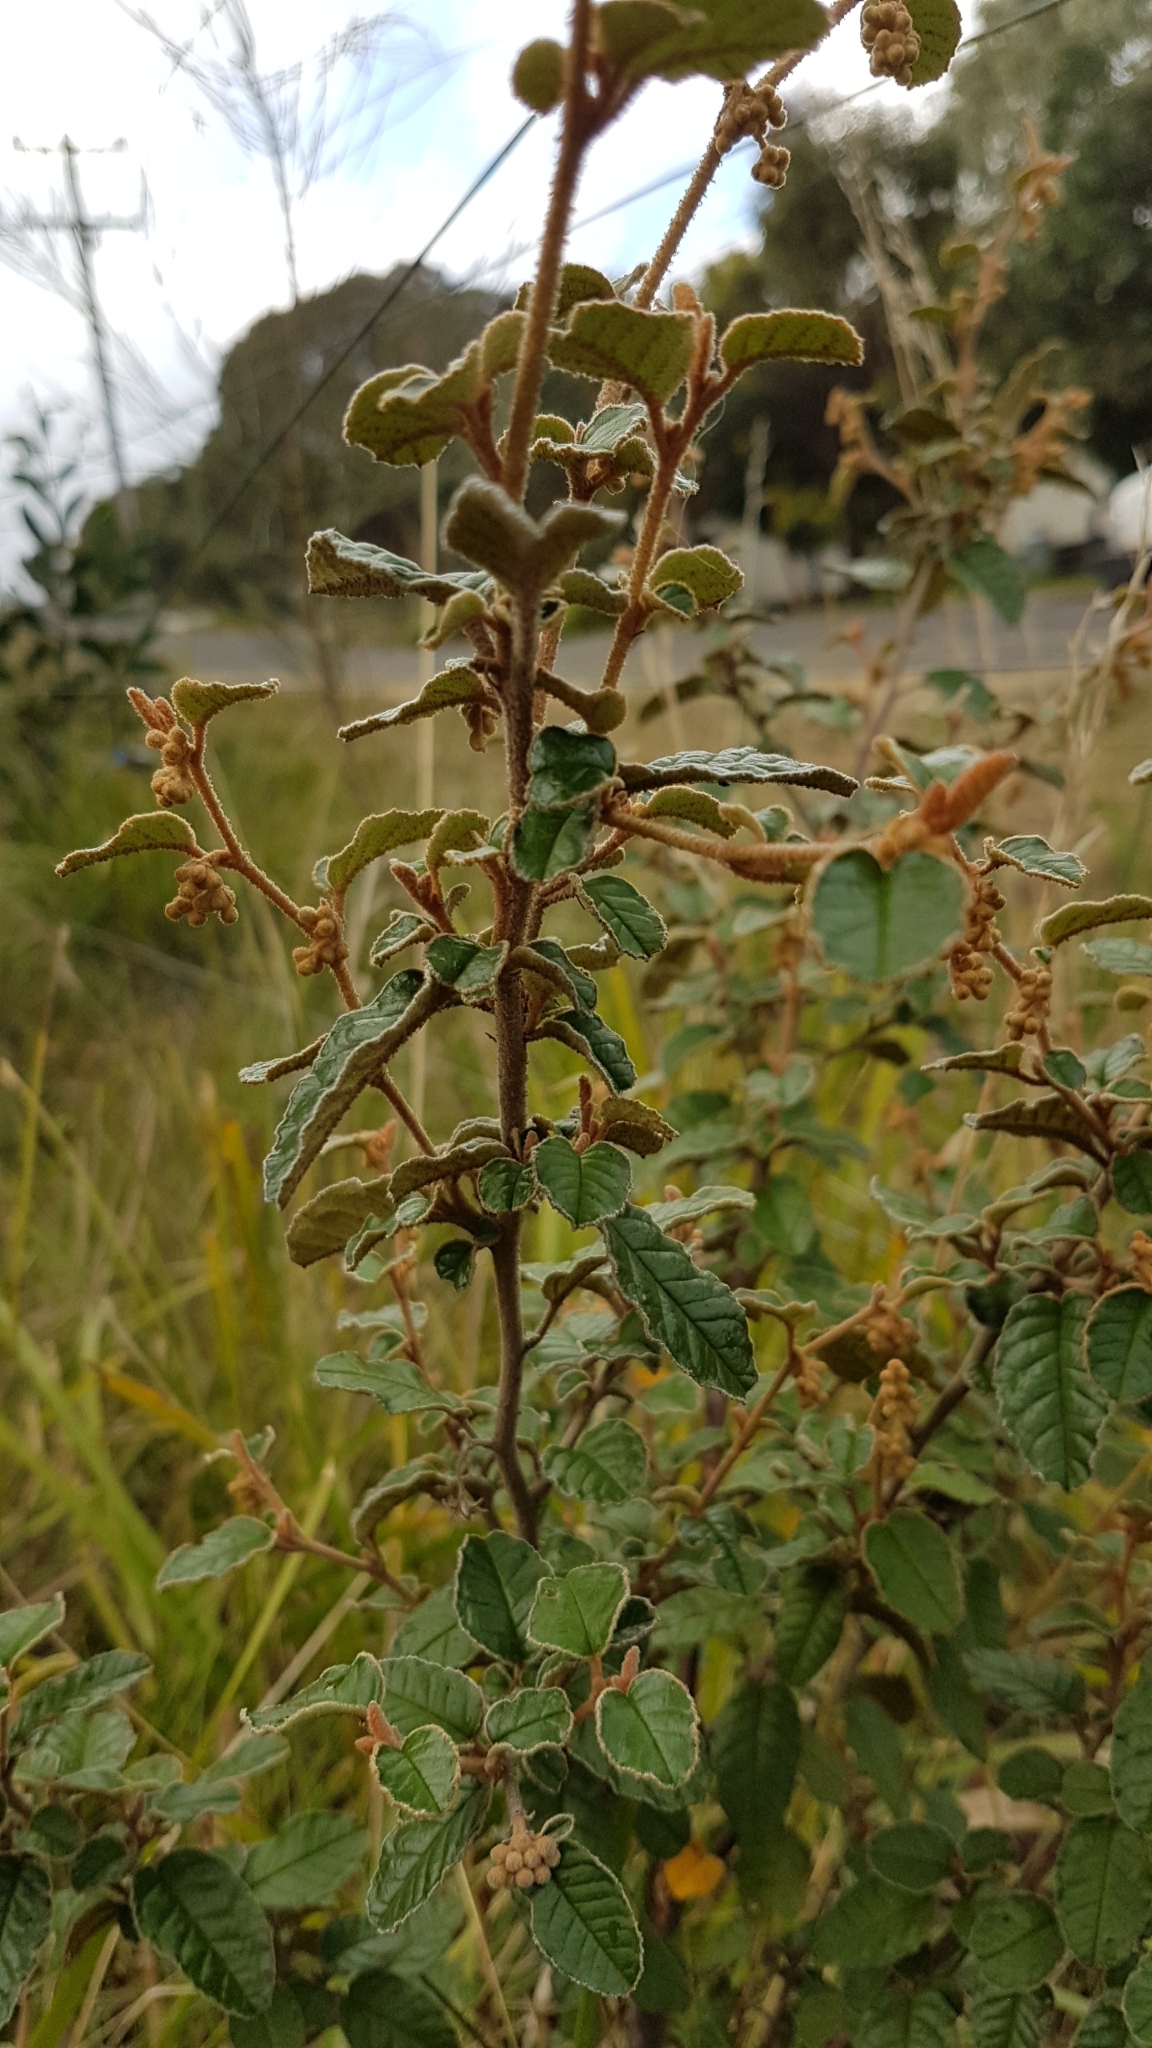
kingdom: Plantae
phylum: Tracheophyta
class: Magnoliopsida
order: Rosales
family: Rhamnaceae
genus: Pomaderris
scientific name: Pomaderris paniculosa
